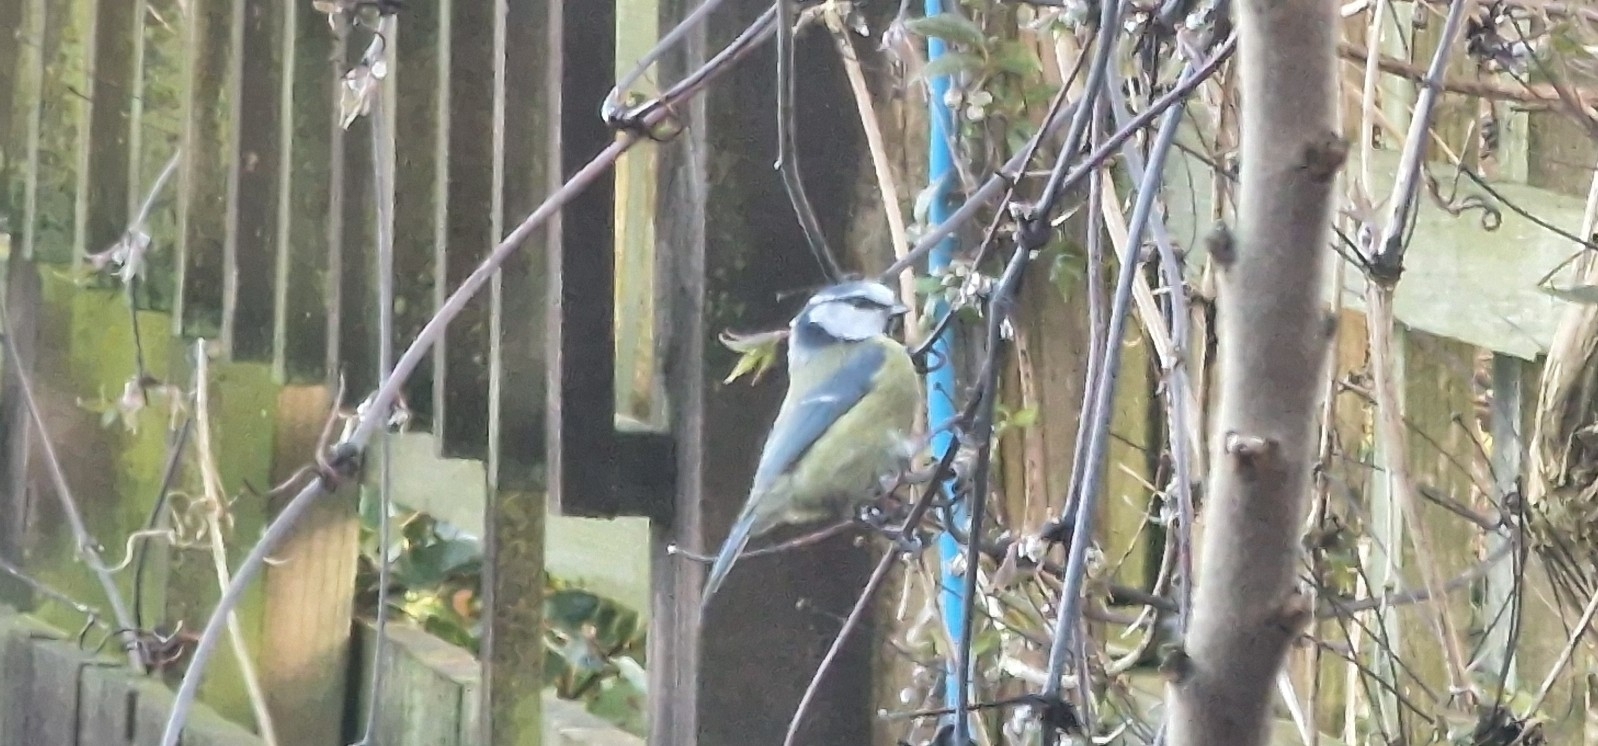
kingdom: Animalia
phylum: Chordata
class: Aves
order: Passeriformes
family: Paridae
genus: Cyanistes
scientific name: Cyanistes caeruleus
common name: Eurasian blue tit
